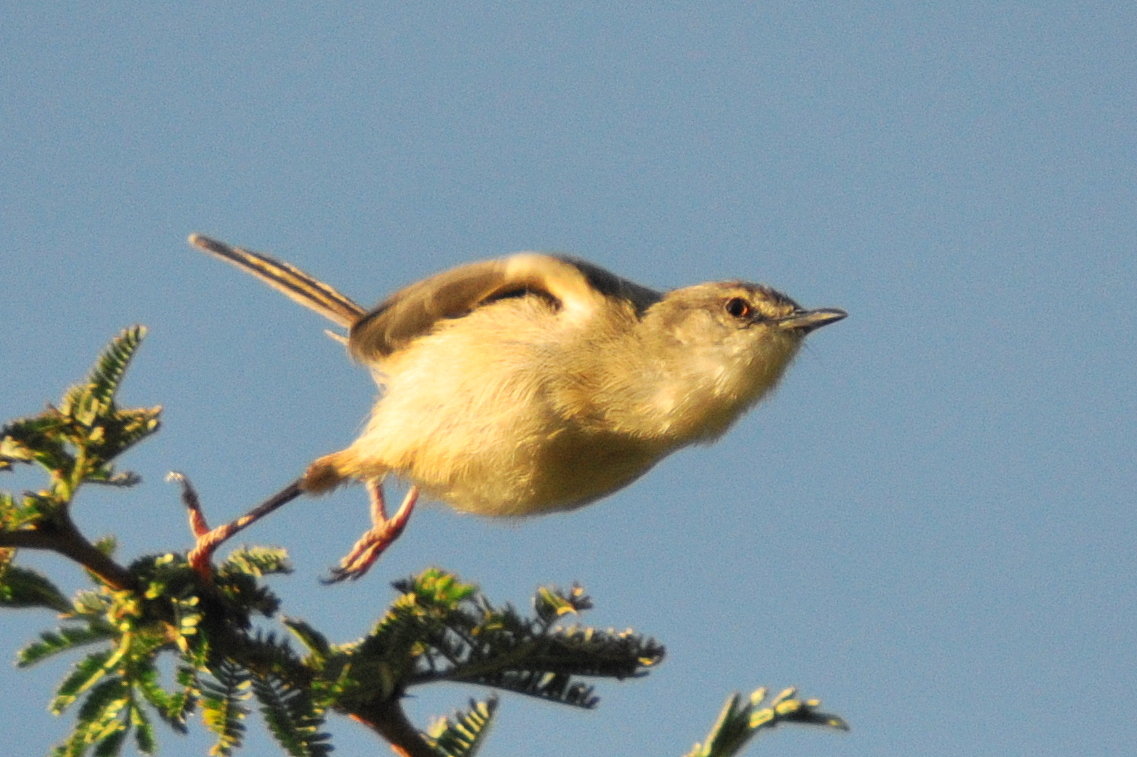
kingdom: Animalia
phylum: Chordata
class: Aves
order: Passeriformes
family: Cisticolidae
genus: Prinia
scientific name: Prinia subflava
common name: Tawny-flanked prinia
